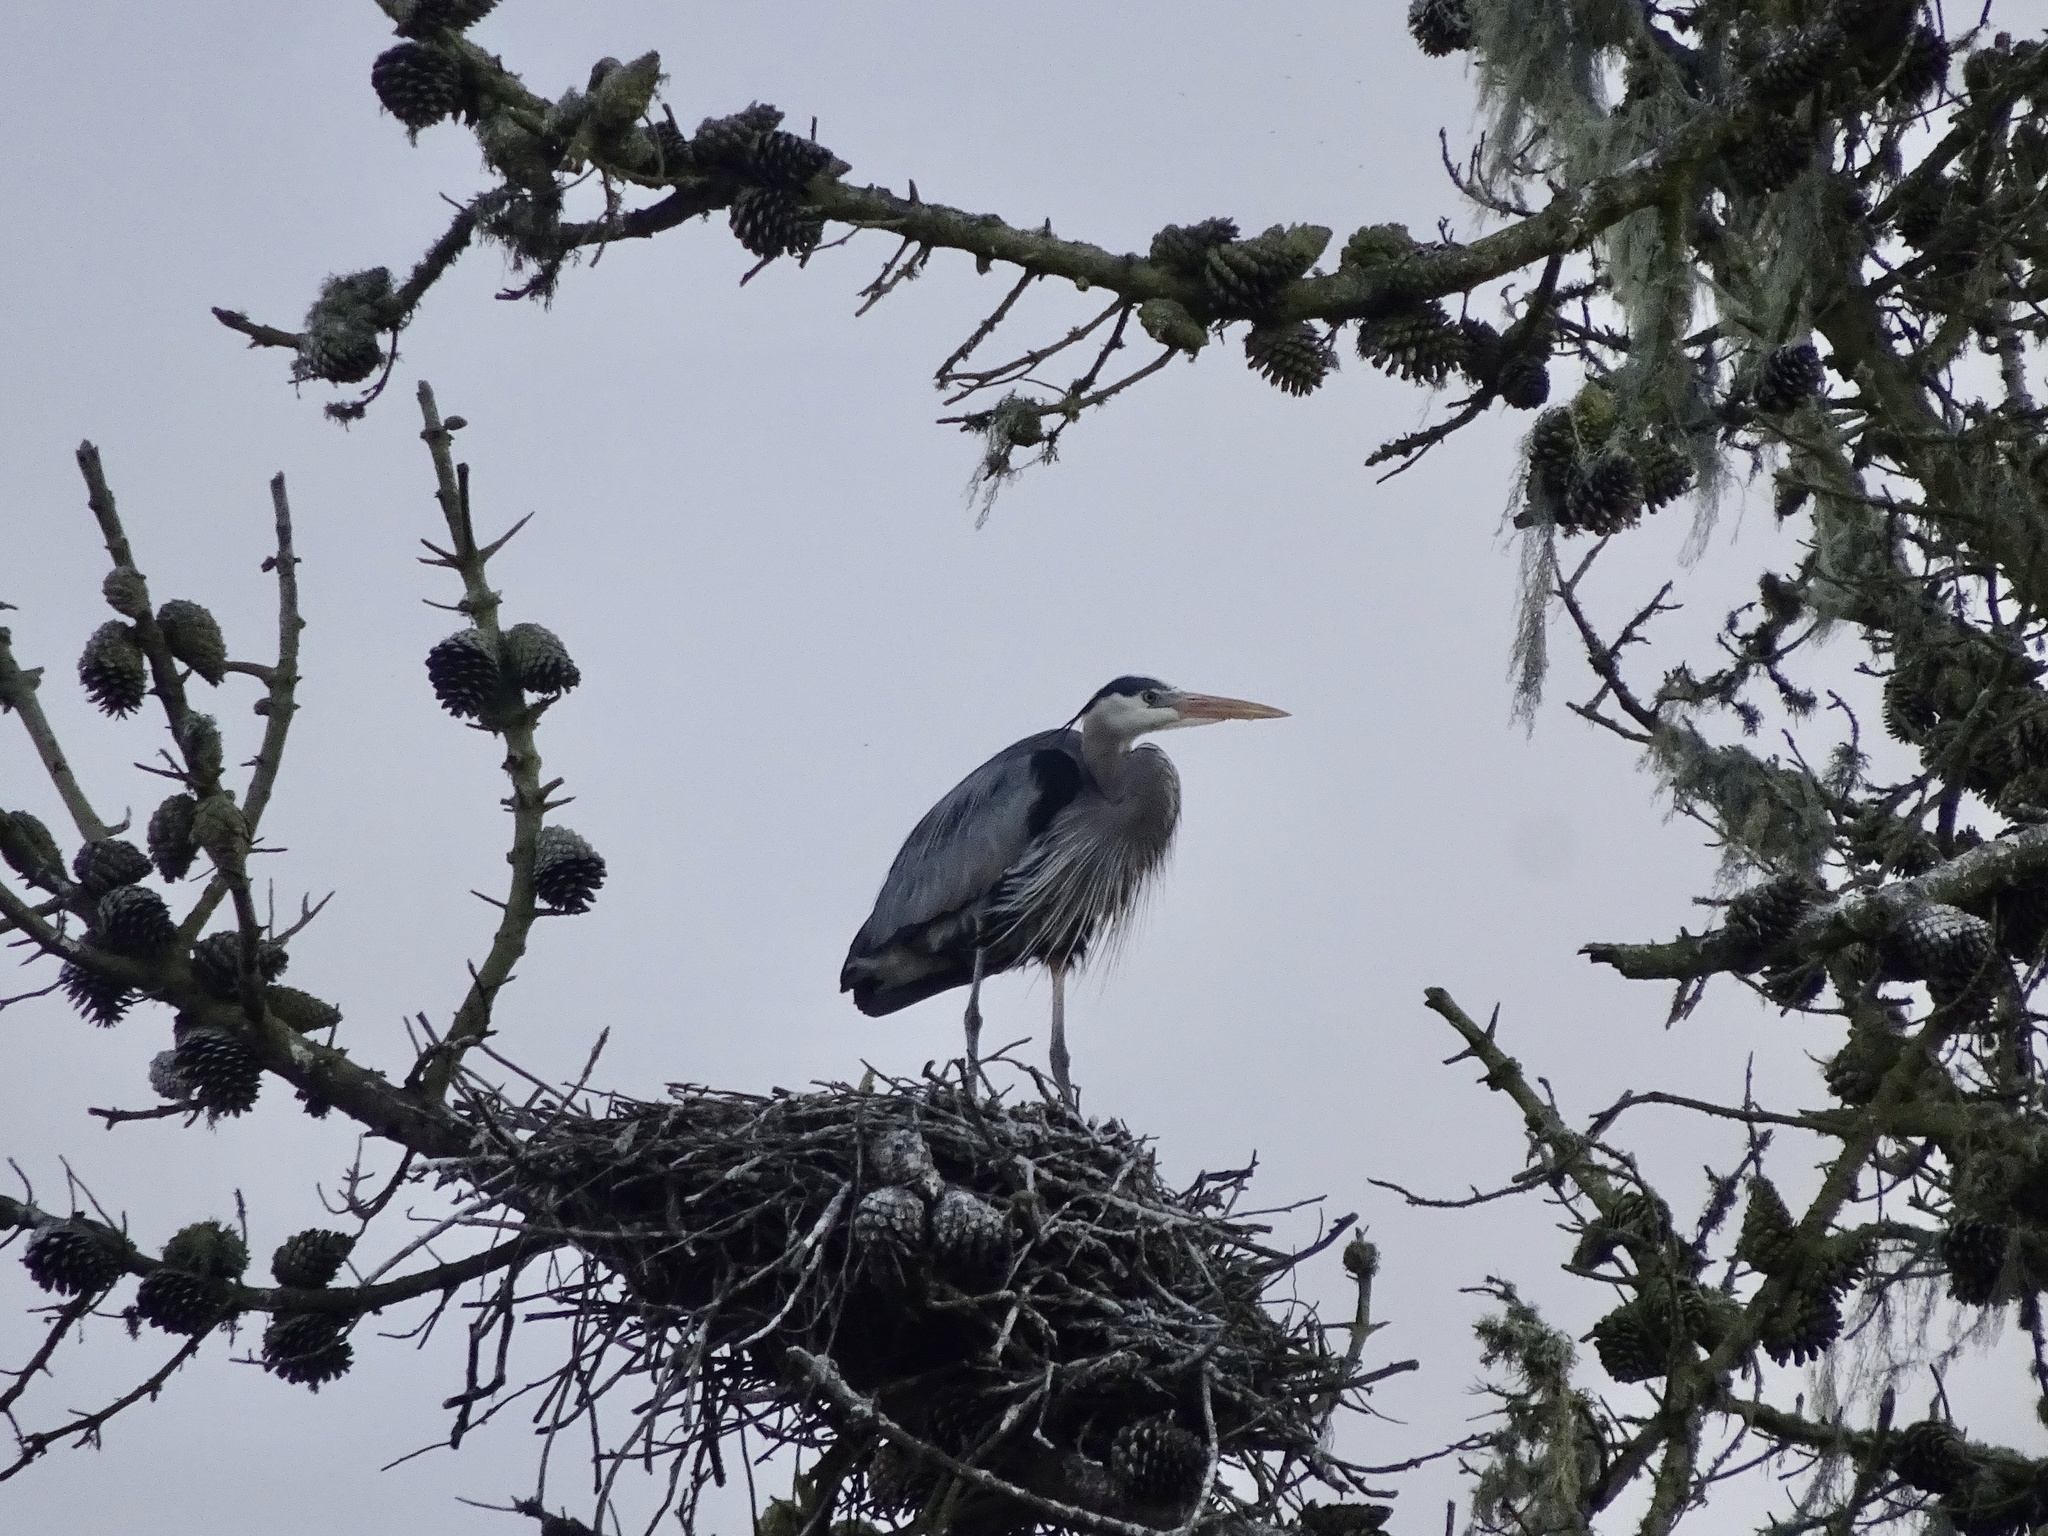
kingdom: Animalia
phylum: Chordata
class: Aves
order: Pelecaniformes
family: Ardeidae
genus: Ardea
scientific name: Ardea herodias
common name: Great blue heron
